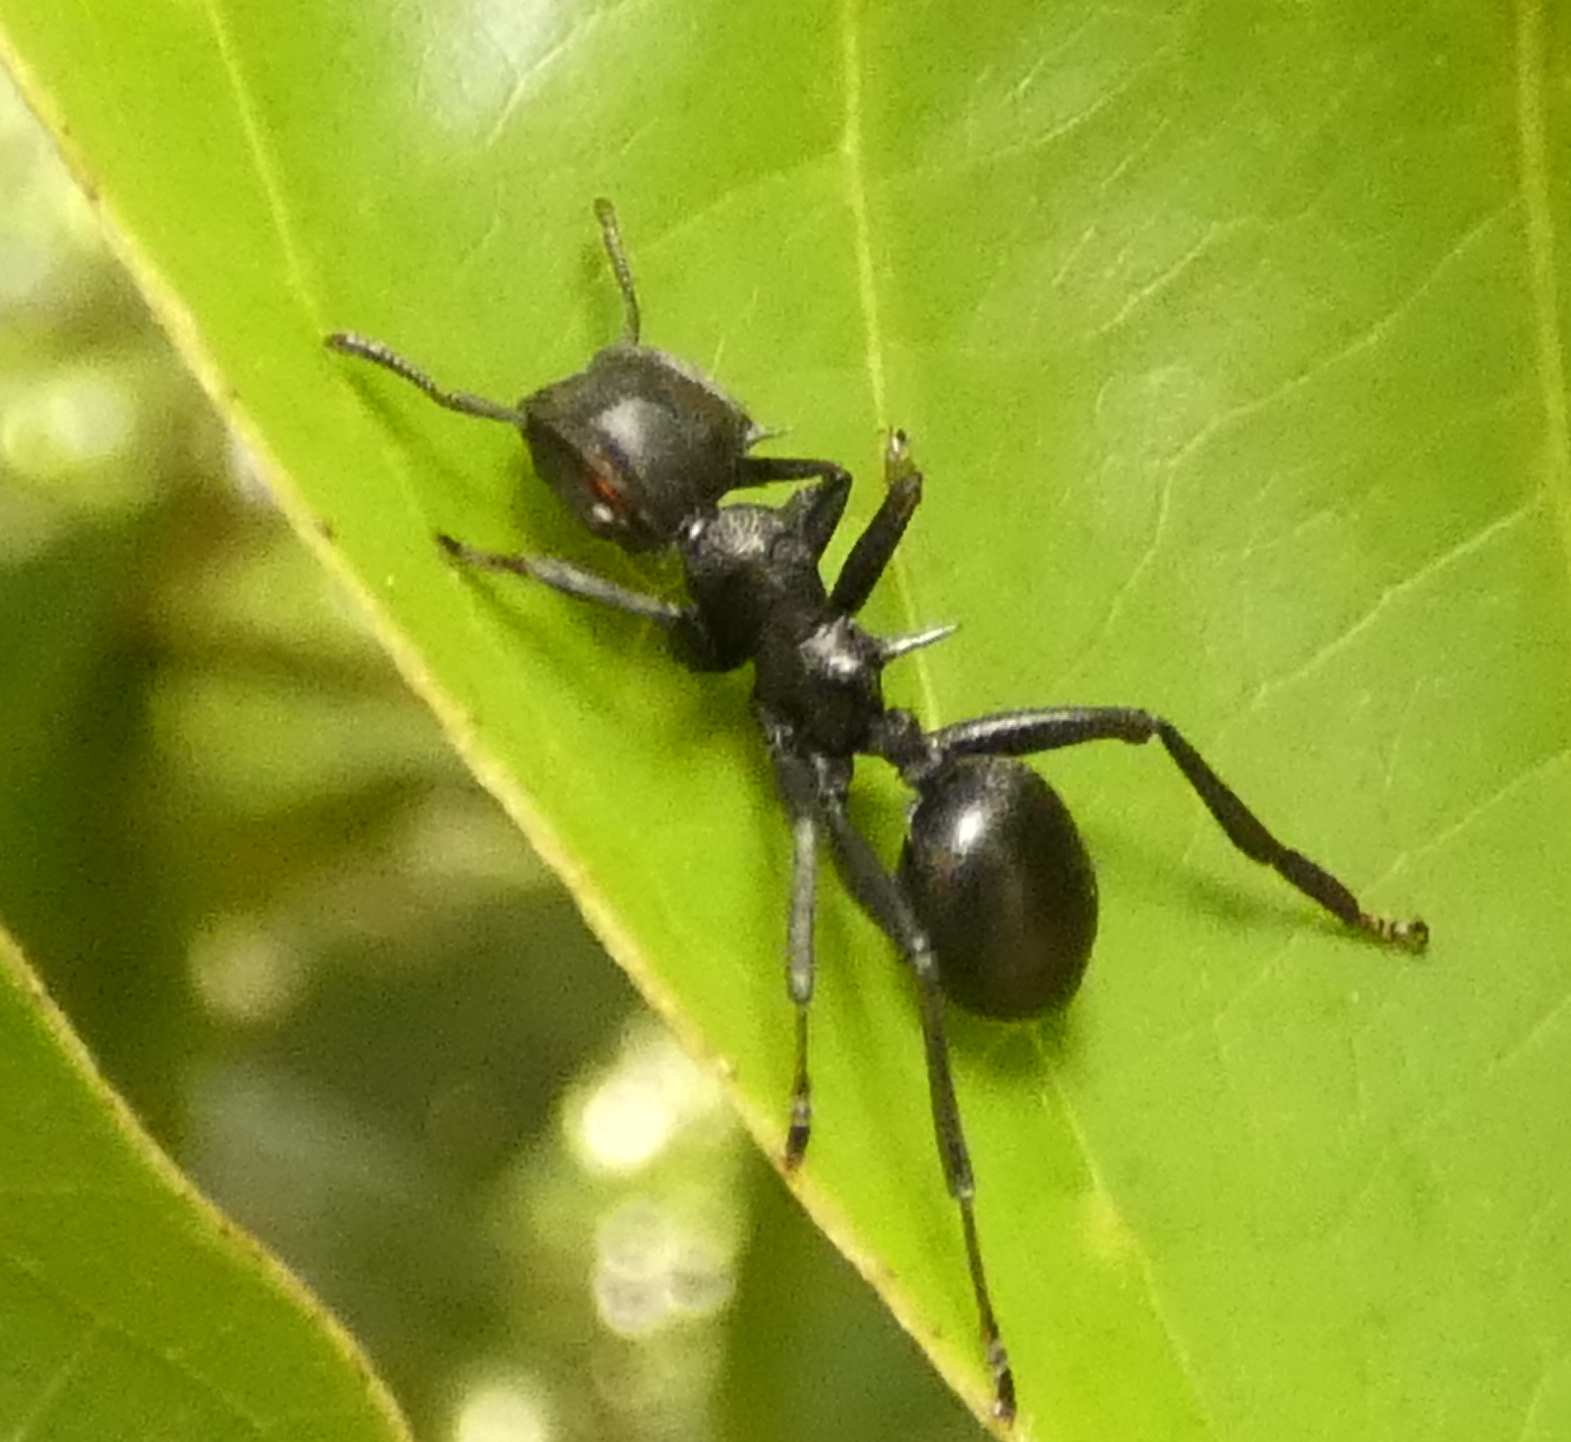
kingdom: Animalia
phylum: Arthropoda
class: Insecta
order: Hymenoptera
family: Formicidae
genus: Cephalotes
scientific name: Cephalotes atratus
